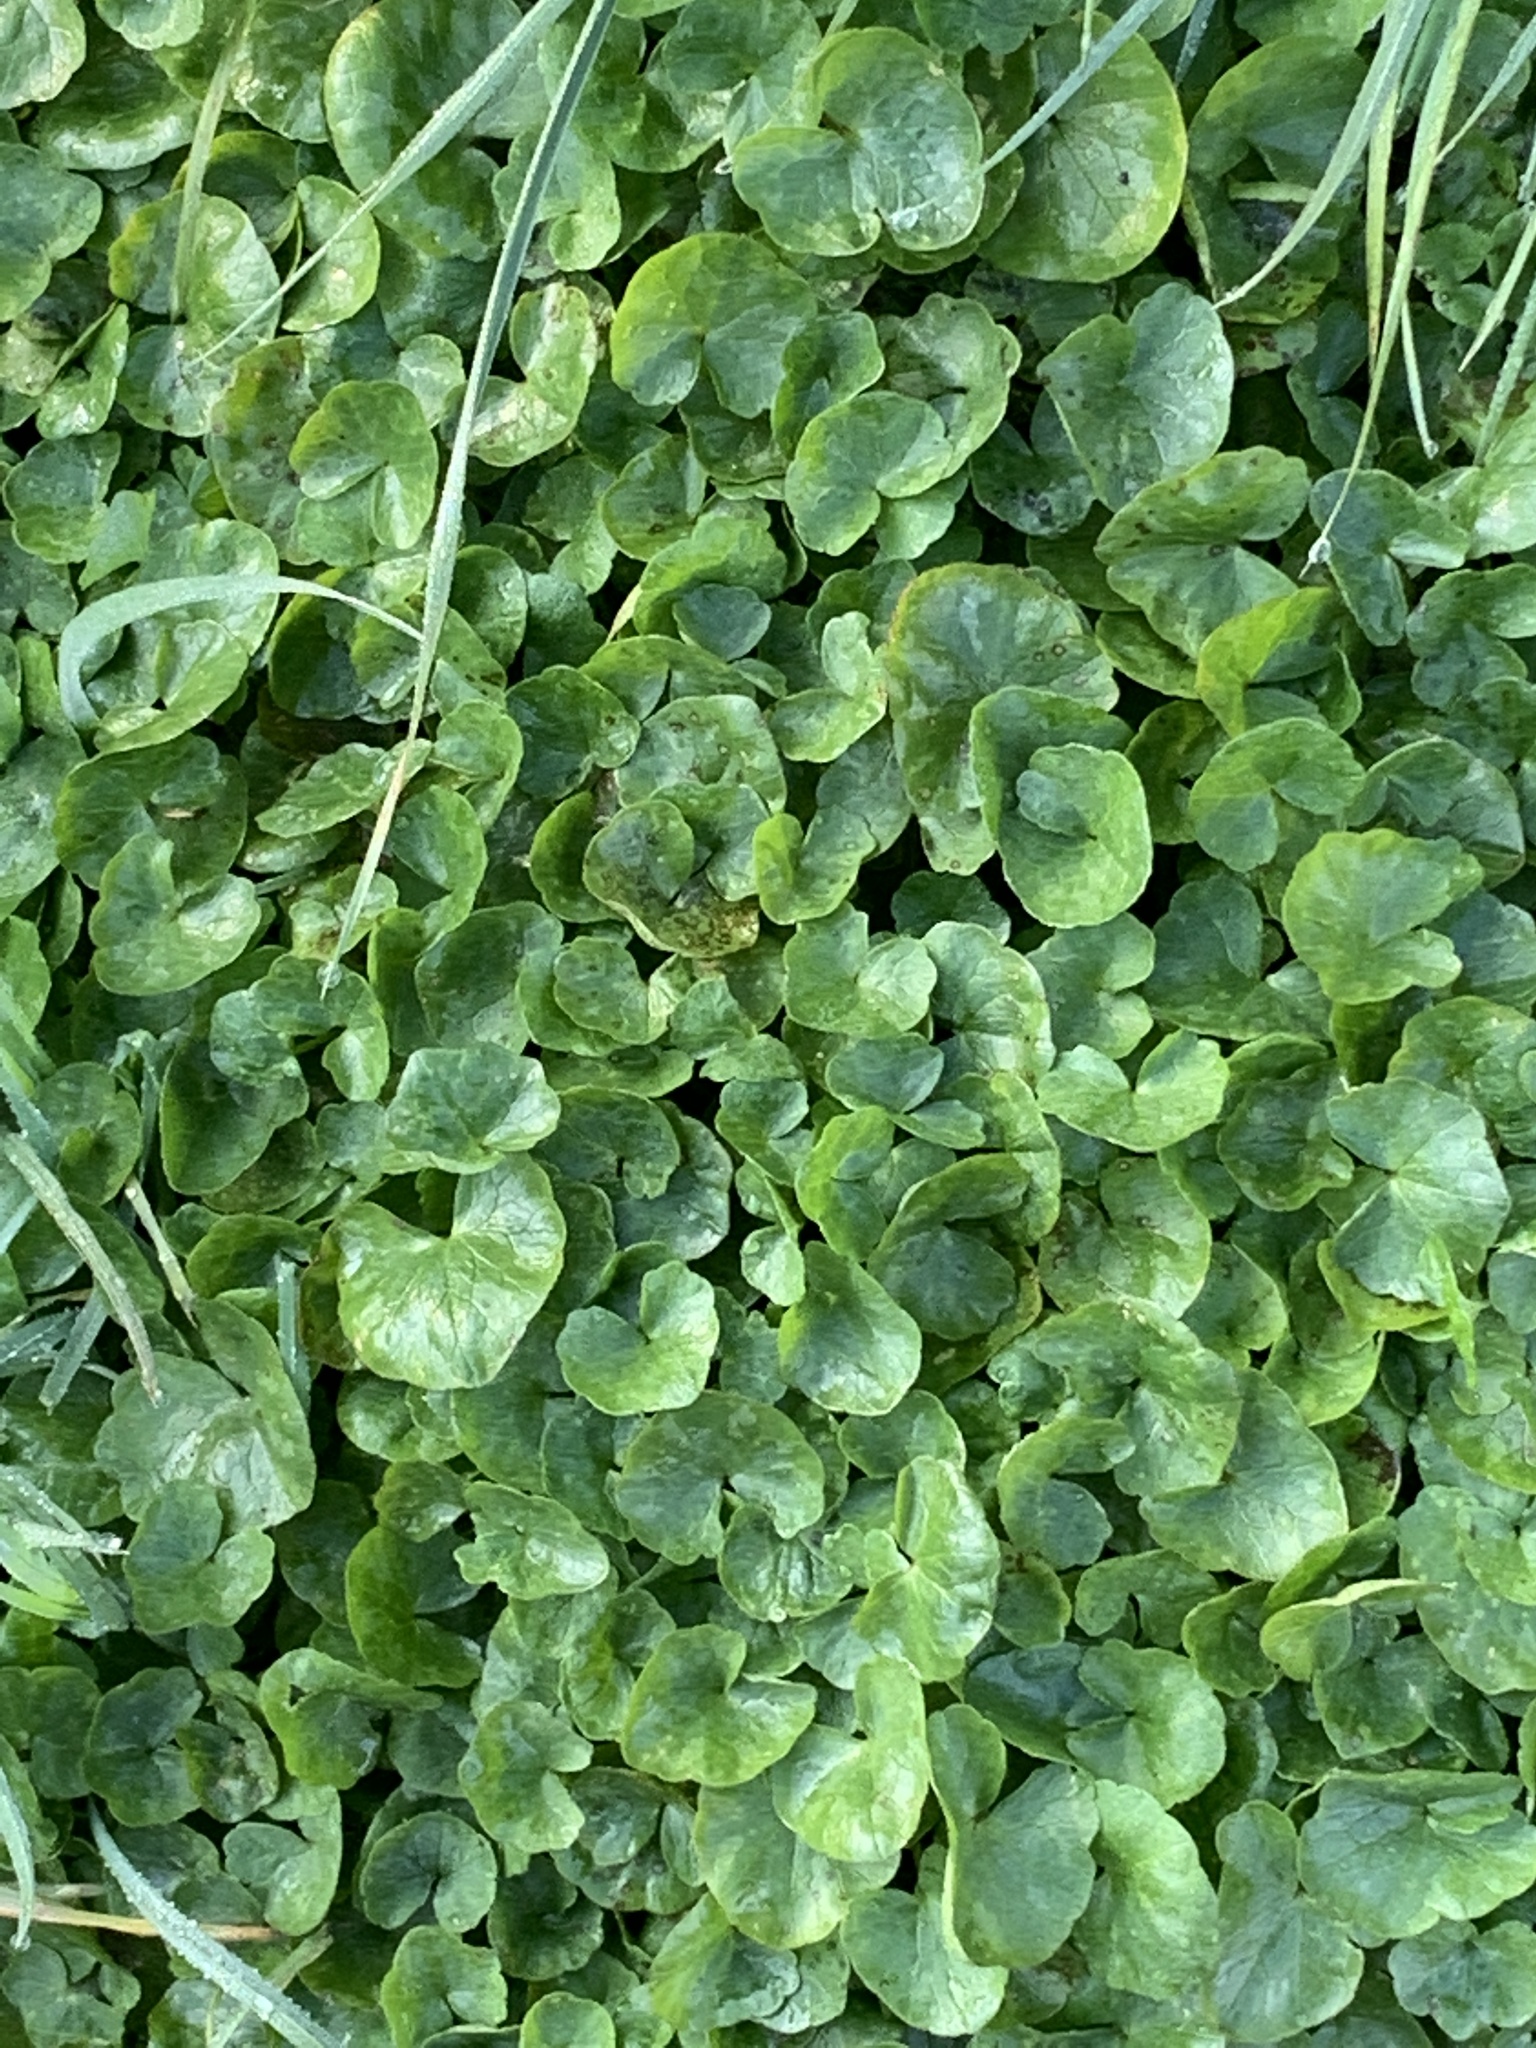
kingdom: Plantae
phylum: Tracheophyta
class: Magnoliopsida
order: Ranunculales
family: Ranunculaceae
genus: Ficaria
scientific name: Ficaria verna
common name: Lesser celandine
